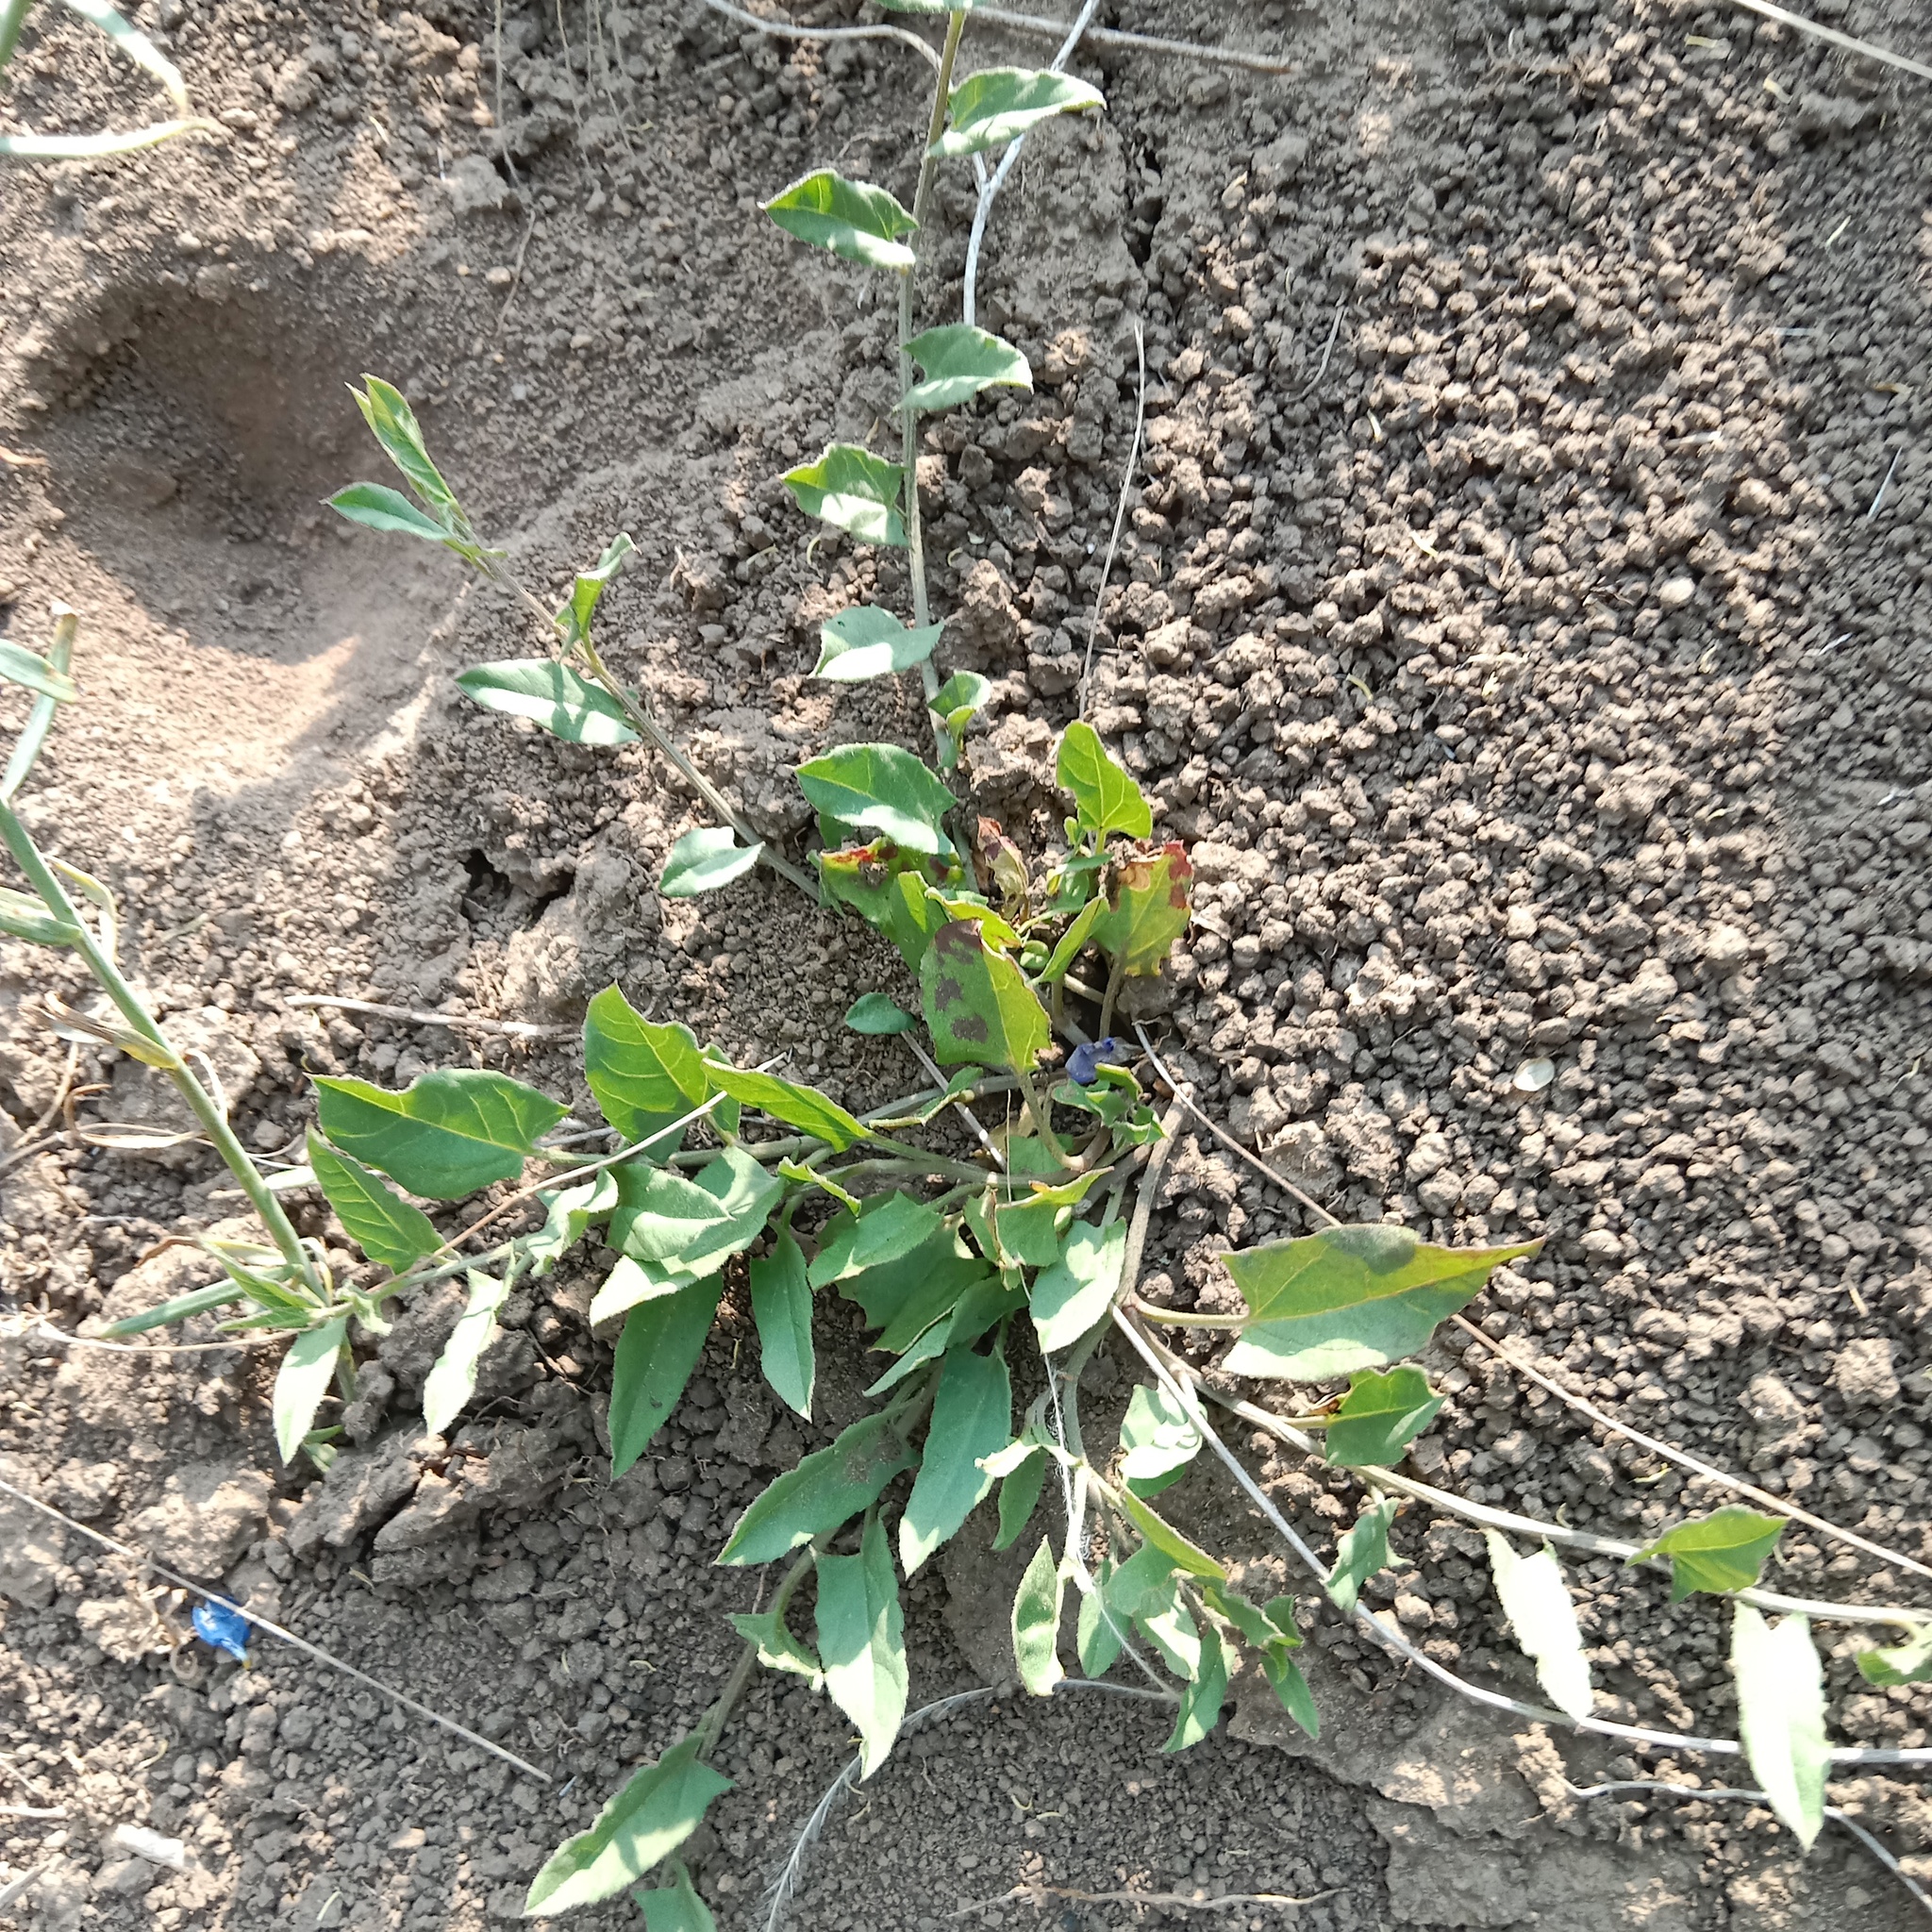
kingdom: Plantae
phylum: Tracheophyta
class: Magnoliopsida
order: Solanales
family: Convolvulaceae
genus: Convolvulus
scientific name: Convolvulus arvensis
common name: Field bindweed
